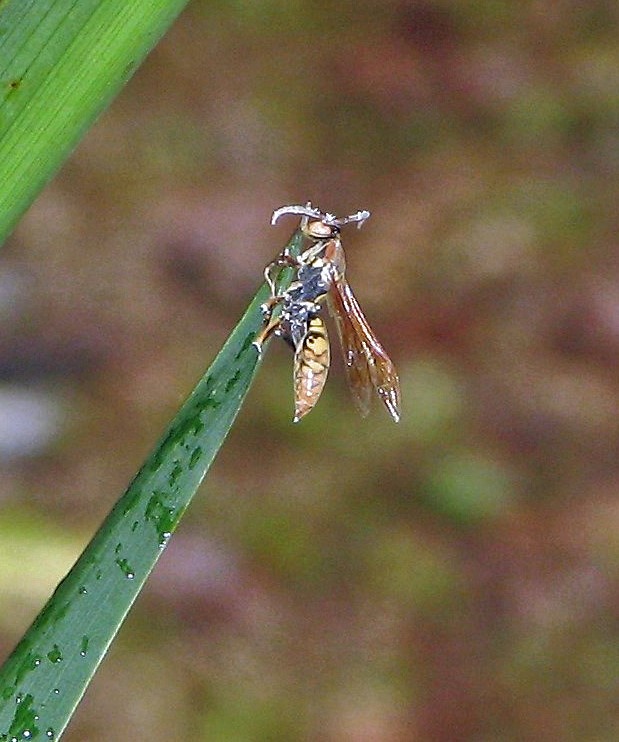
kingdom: Animalia
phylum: Arthropoda
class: Insecta
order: Hymenoptera
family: Eumenidae
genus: Polistes
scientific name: Polistes versicolor
